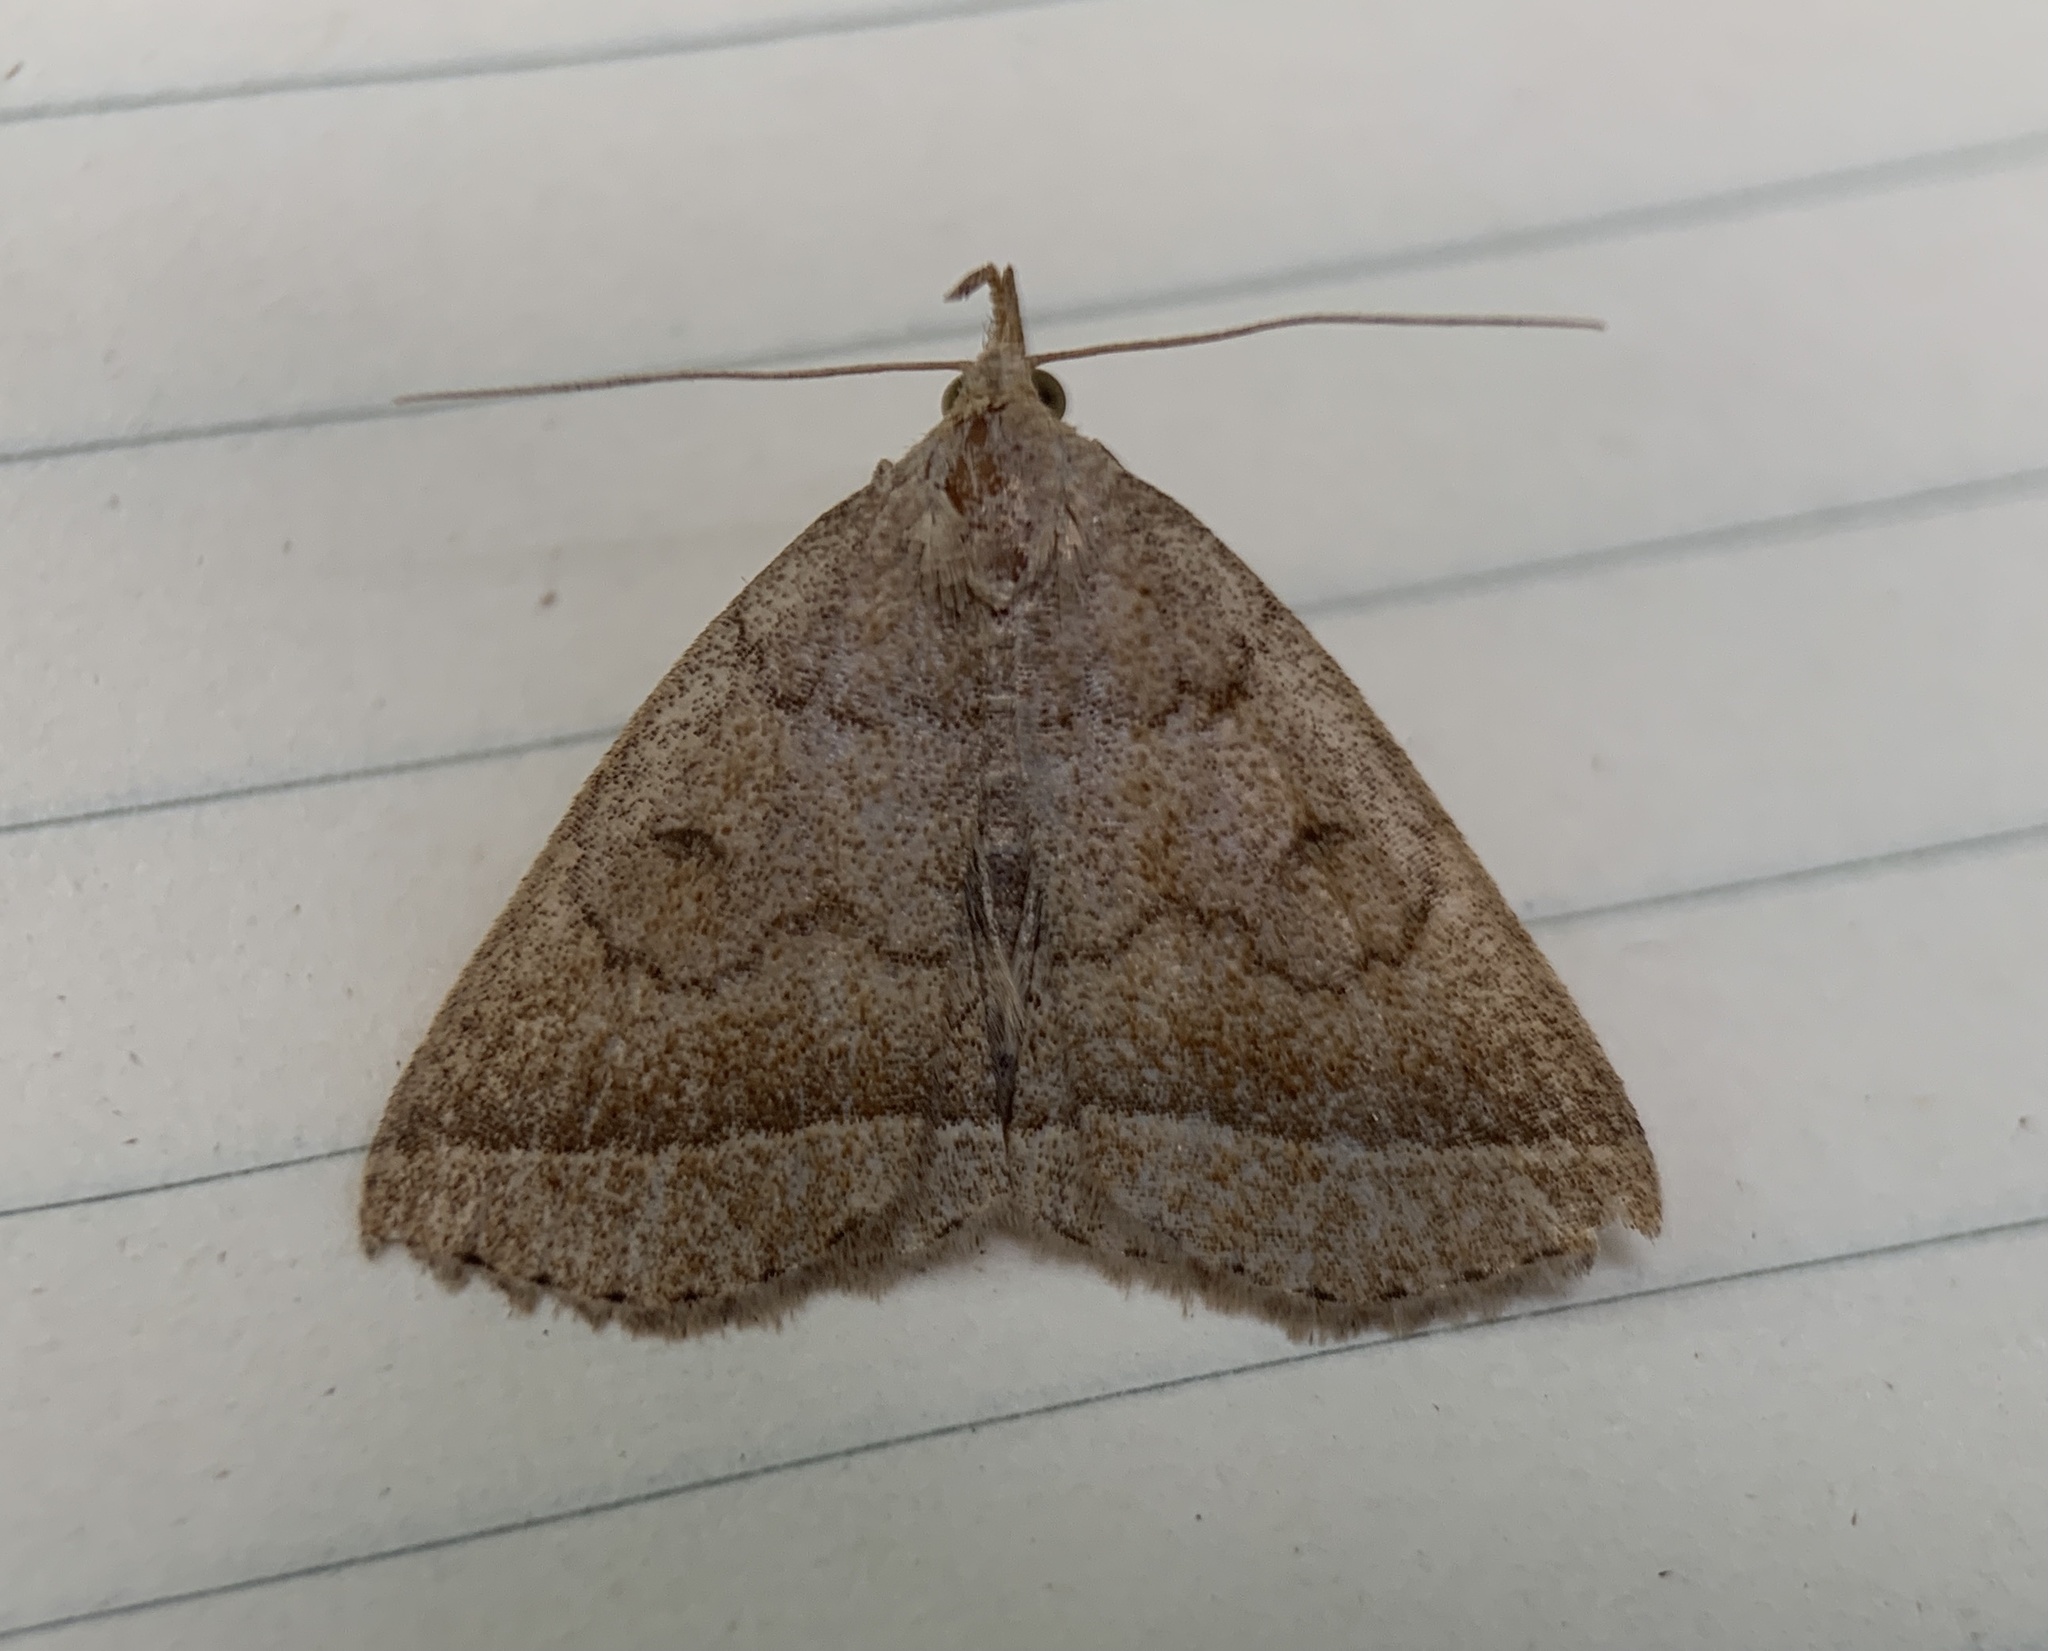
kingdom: Animalia
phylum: Arthropoda
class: Insecta
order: Lepidoptera
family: Erebidae
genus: Zanclognatha
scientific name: Zanclognatha jacchusalis
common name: Yellowish zanclognatha
